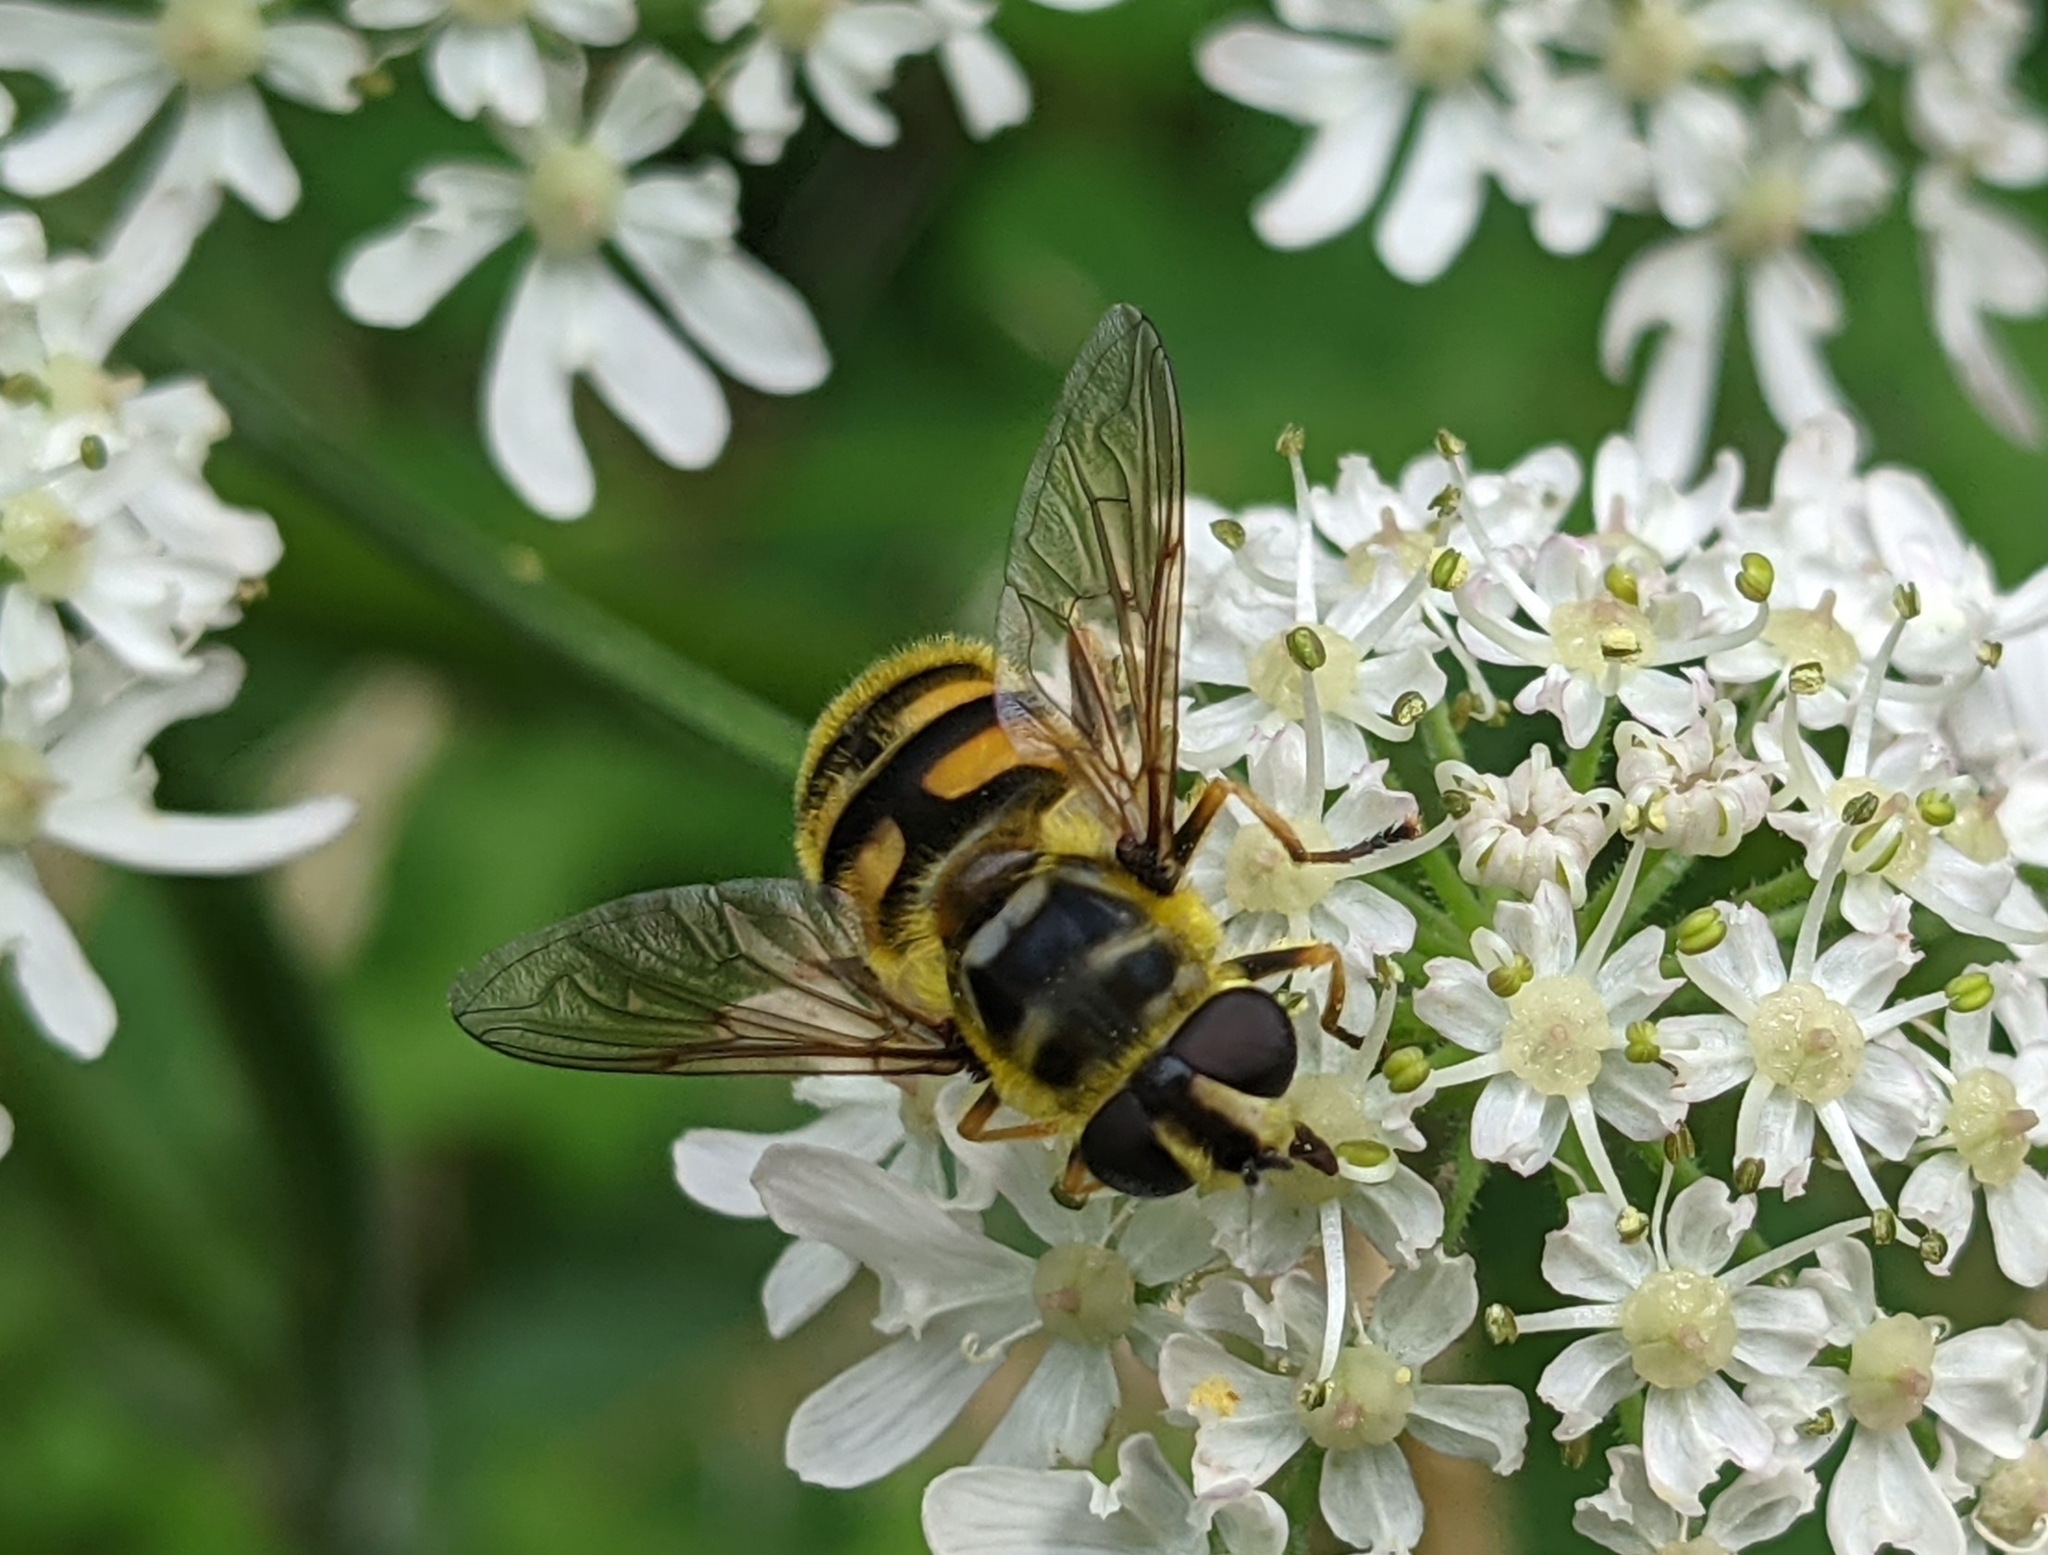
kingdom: Animalia
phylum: Arthropoda
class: Insecta
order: Diptera
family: Syrphidae
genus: Myathropa
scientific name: Myathropa florea
